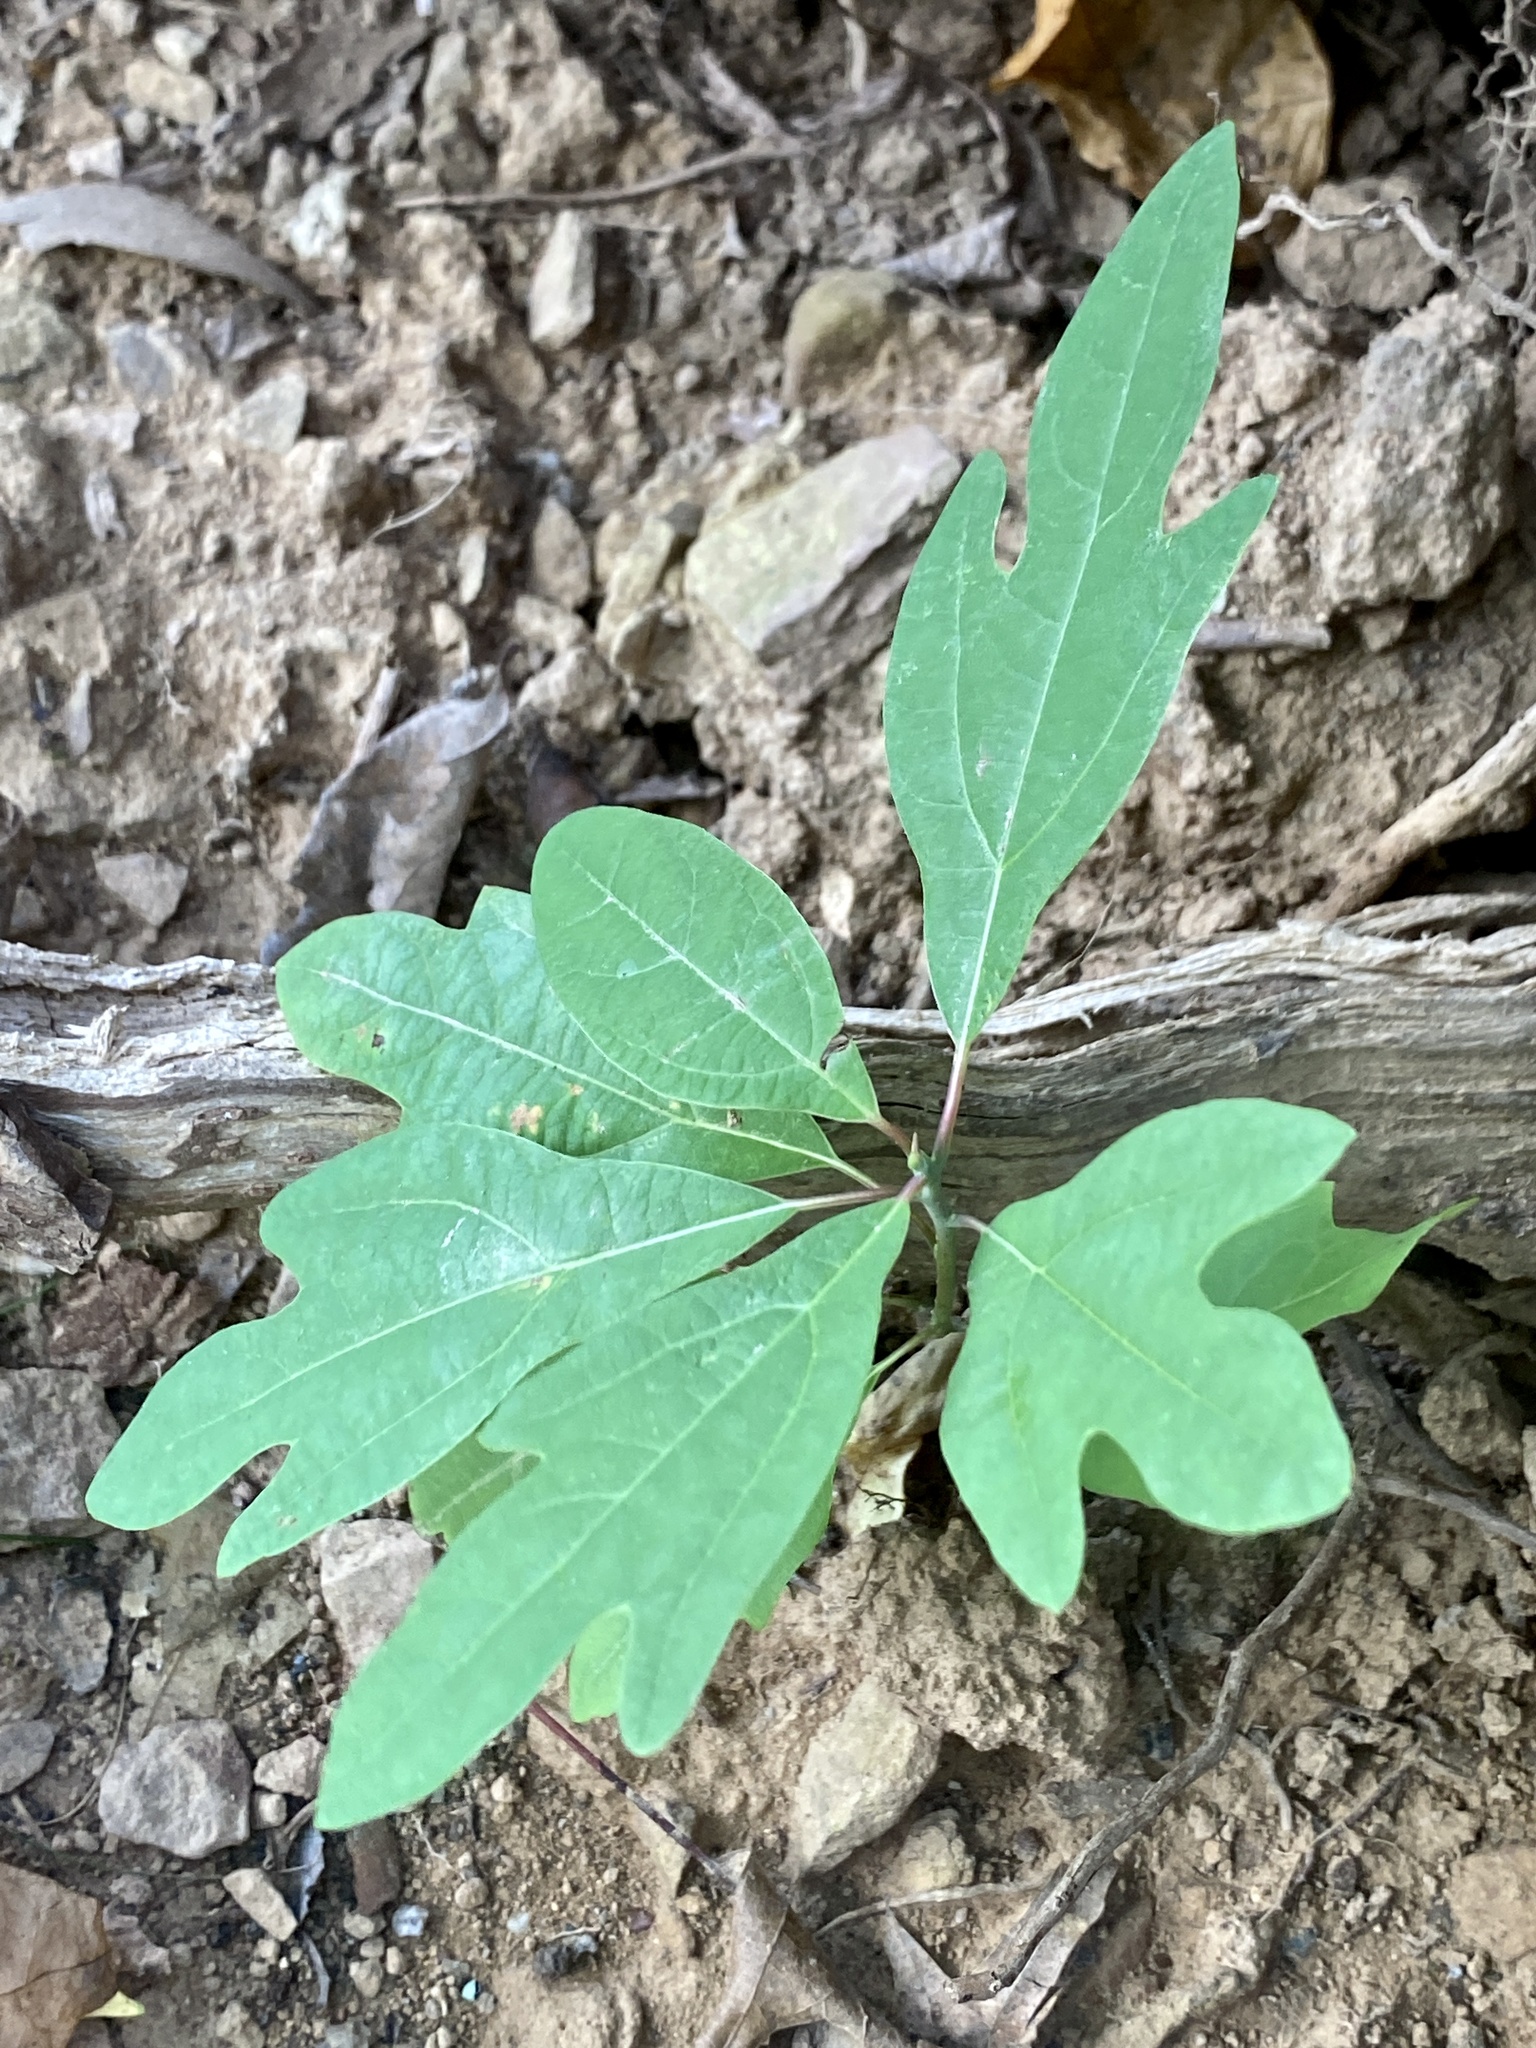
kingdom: Plantae
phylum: Tracheophyta
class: Magnoliopsida
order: Laurales
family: Lauraceae
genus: Sassafras
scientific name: Sassafras albidum
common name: Sassafras
